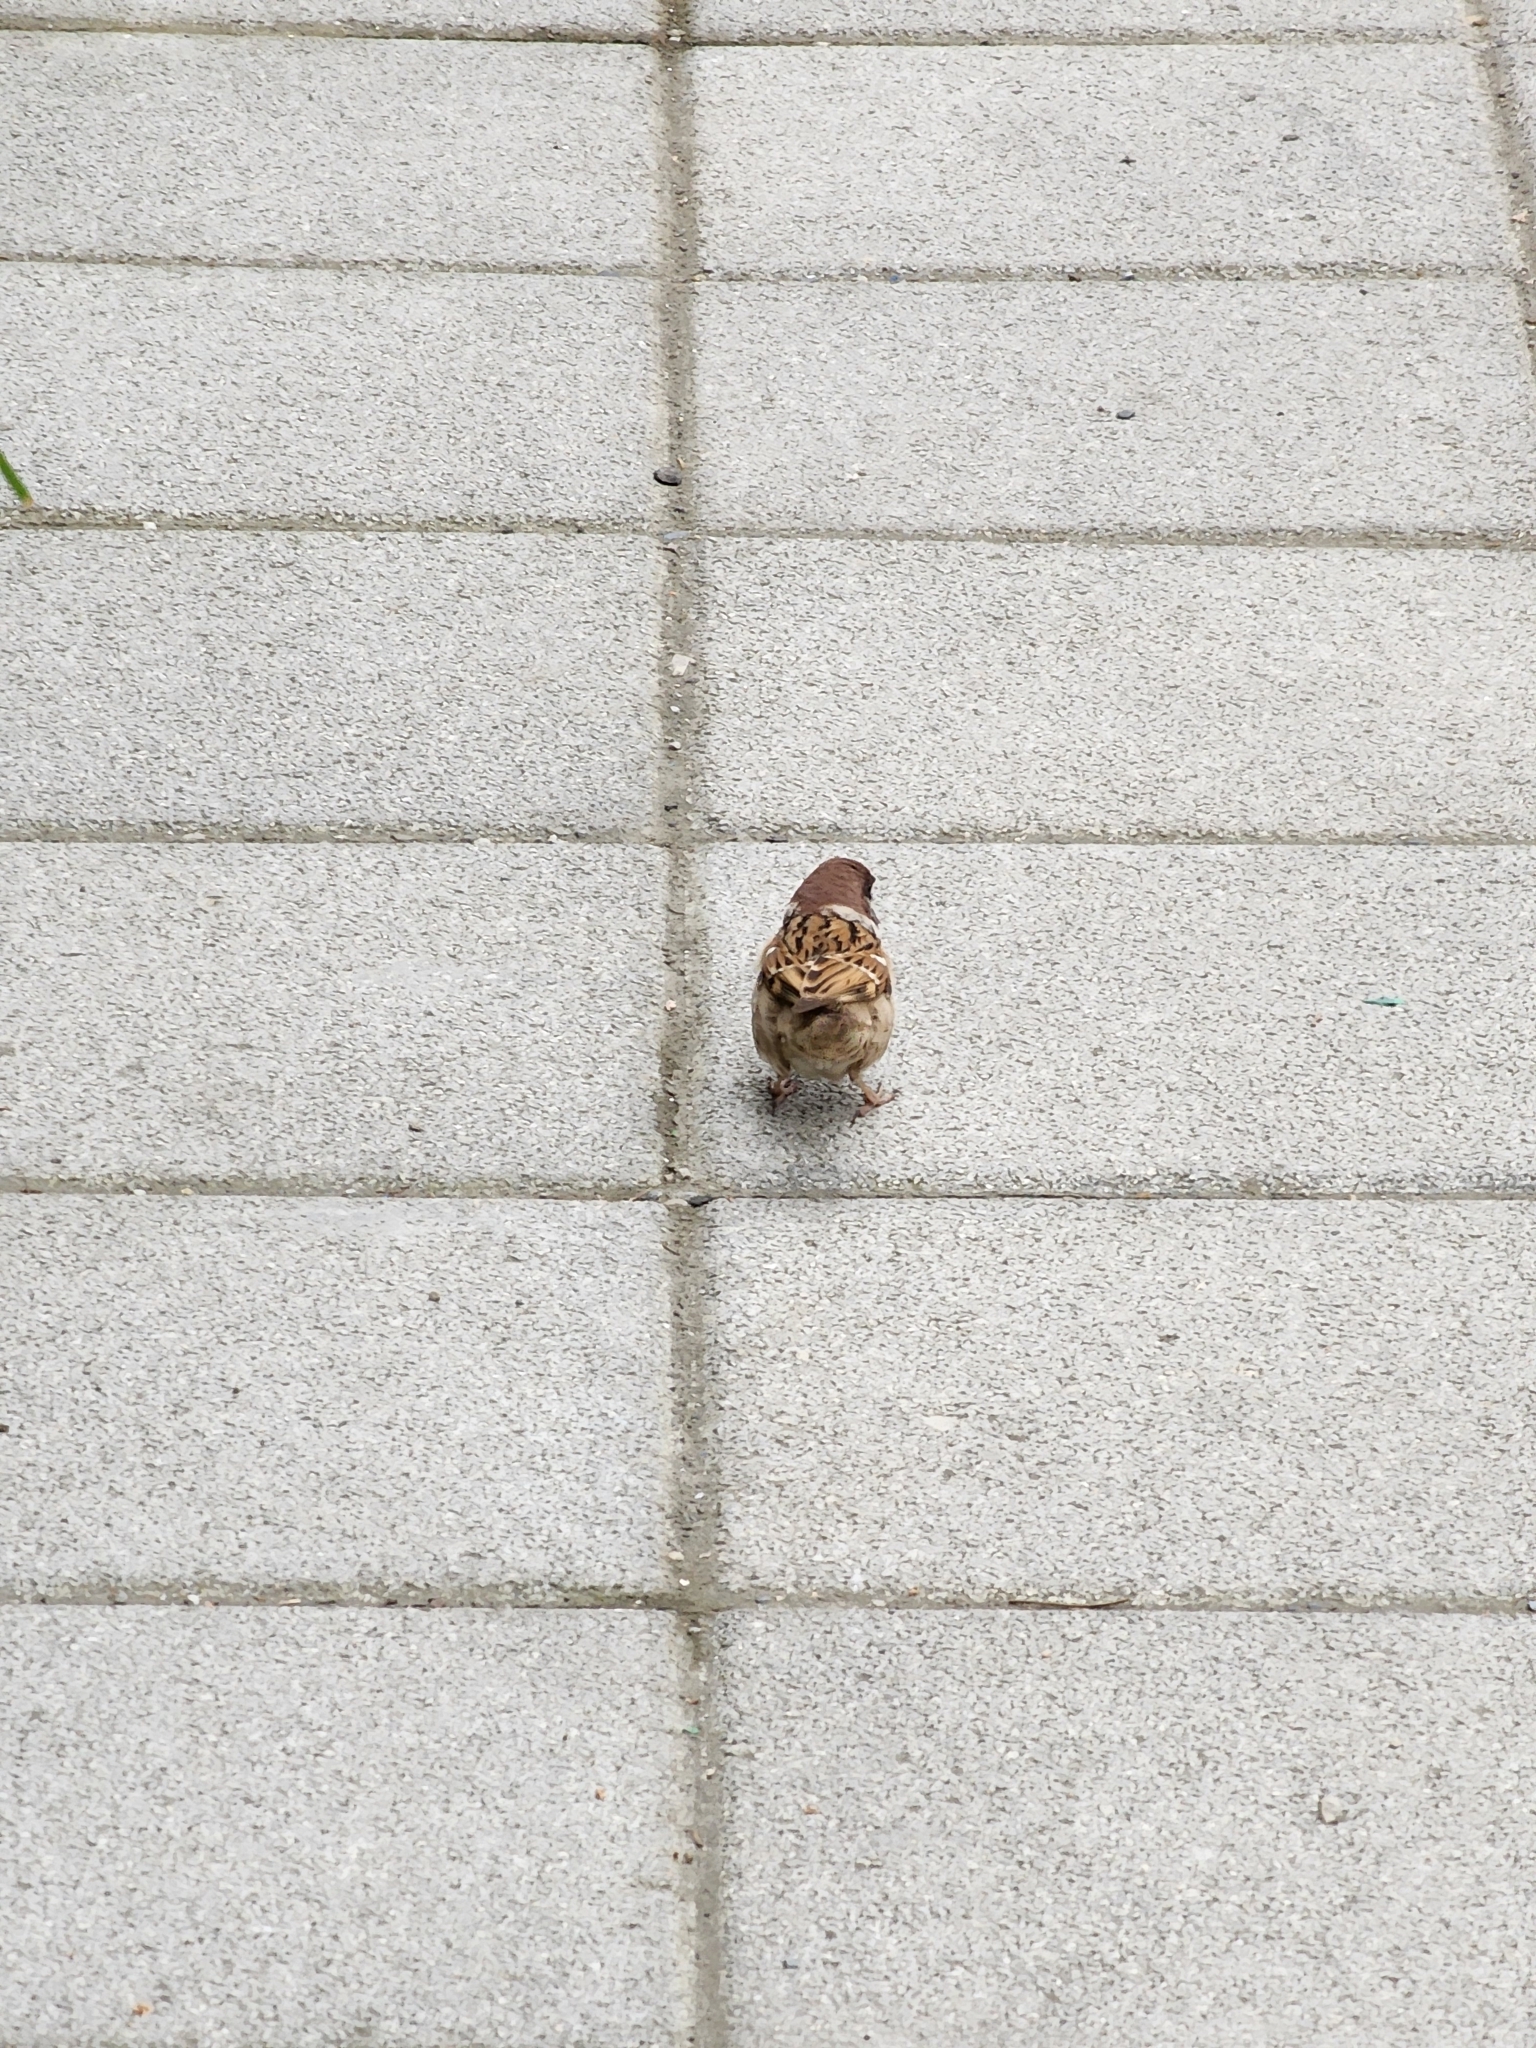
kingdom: Animalia
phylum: Chordata
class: Aves
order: Passeriformes
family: Passeridae
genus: Passer
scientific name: Passer montanus
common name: Eurasian tree sparrow
